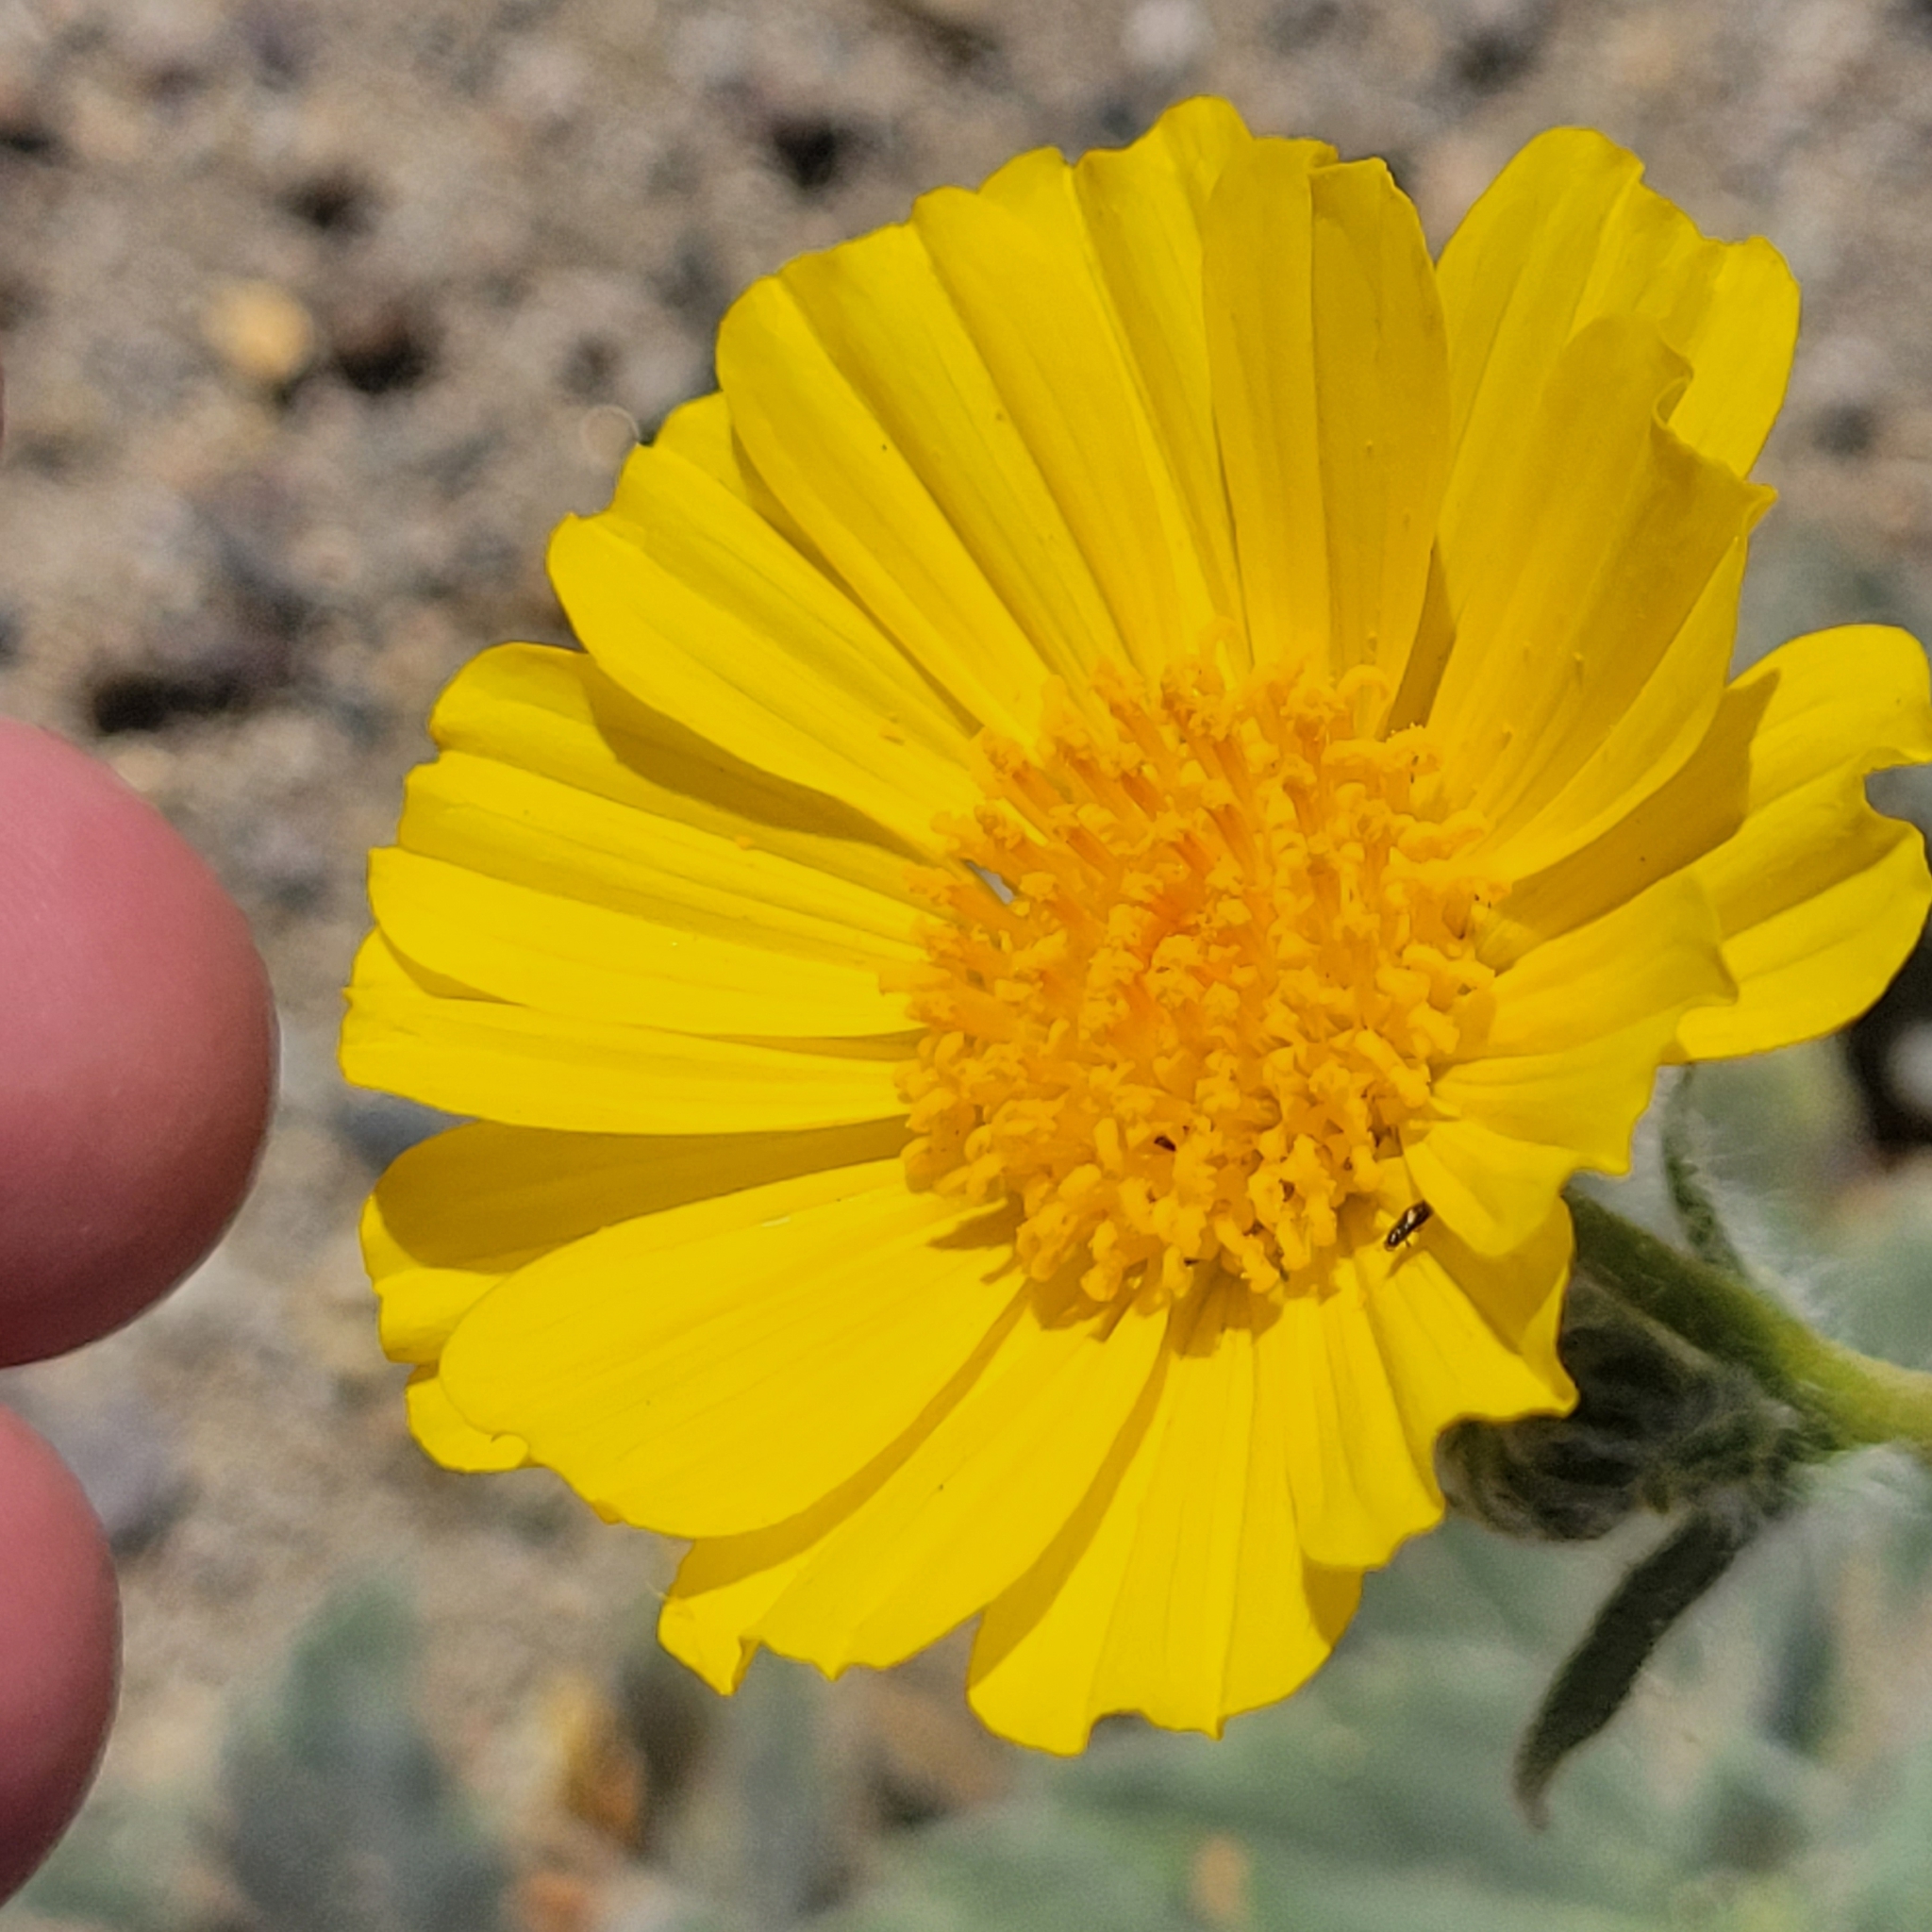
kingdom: Plantae
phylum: Tracheophyta
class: Magnoliopsida
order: Asterales
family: Asteraceae
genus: Geraea
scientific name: Geraea canescens
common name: Desert-gold
